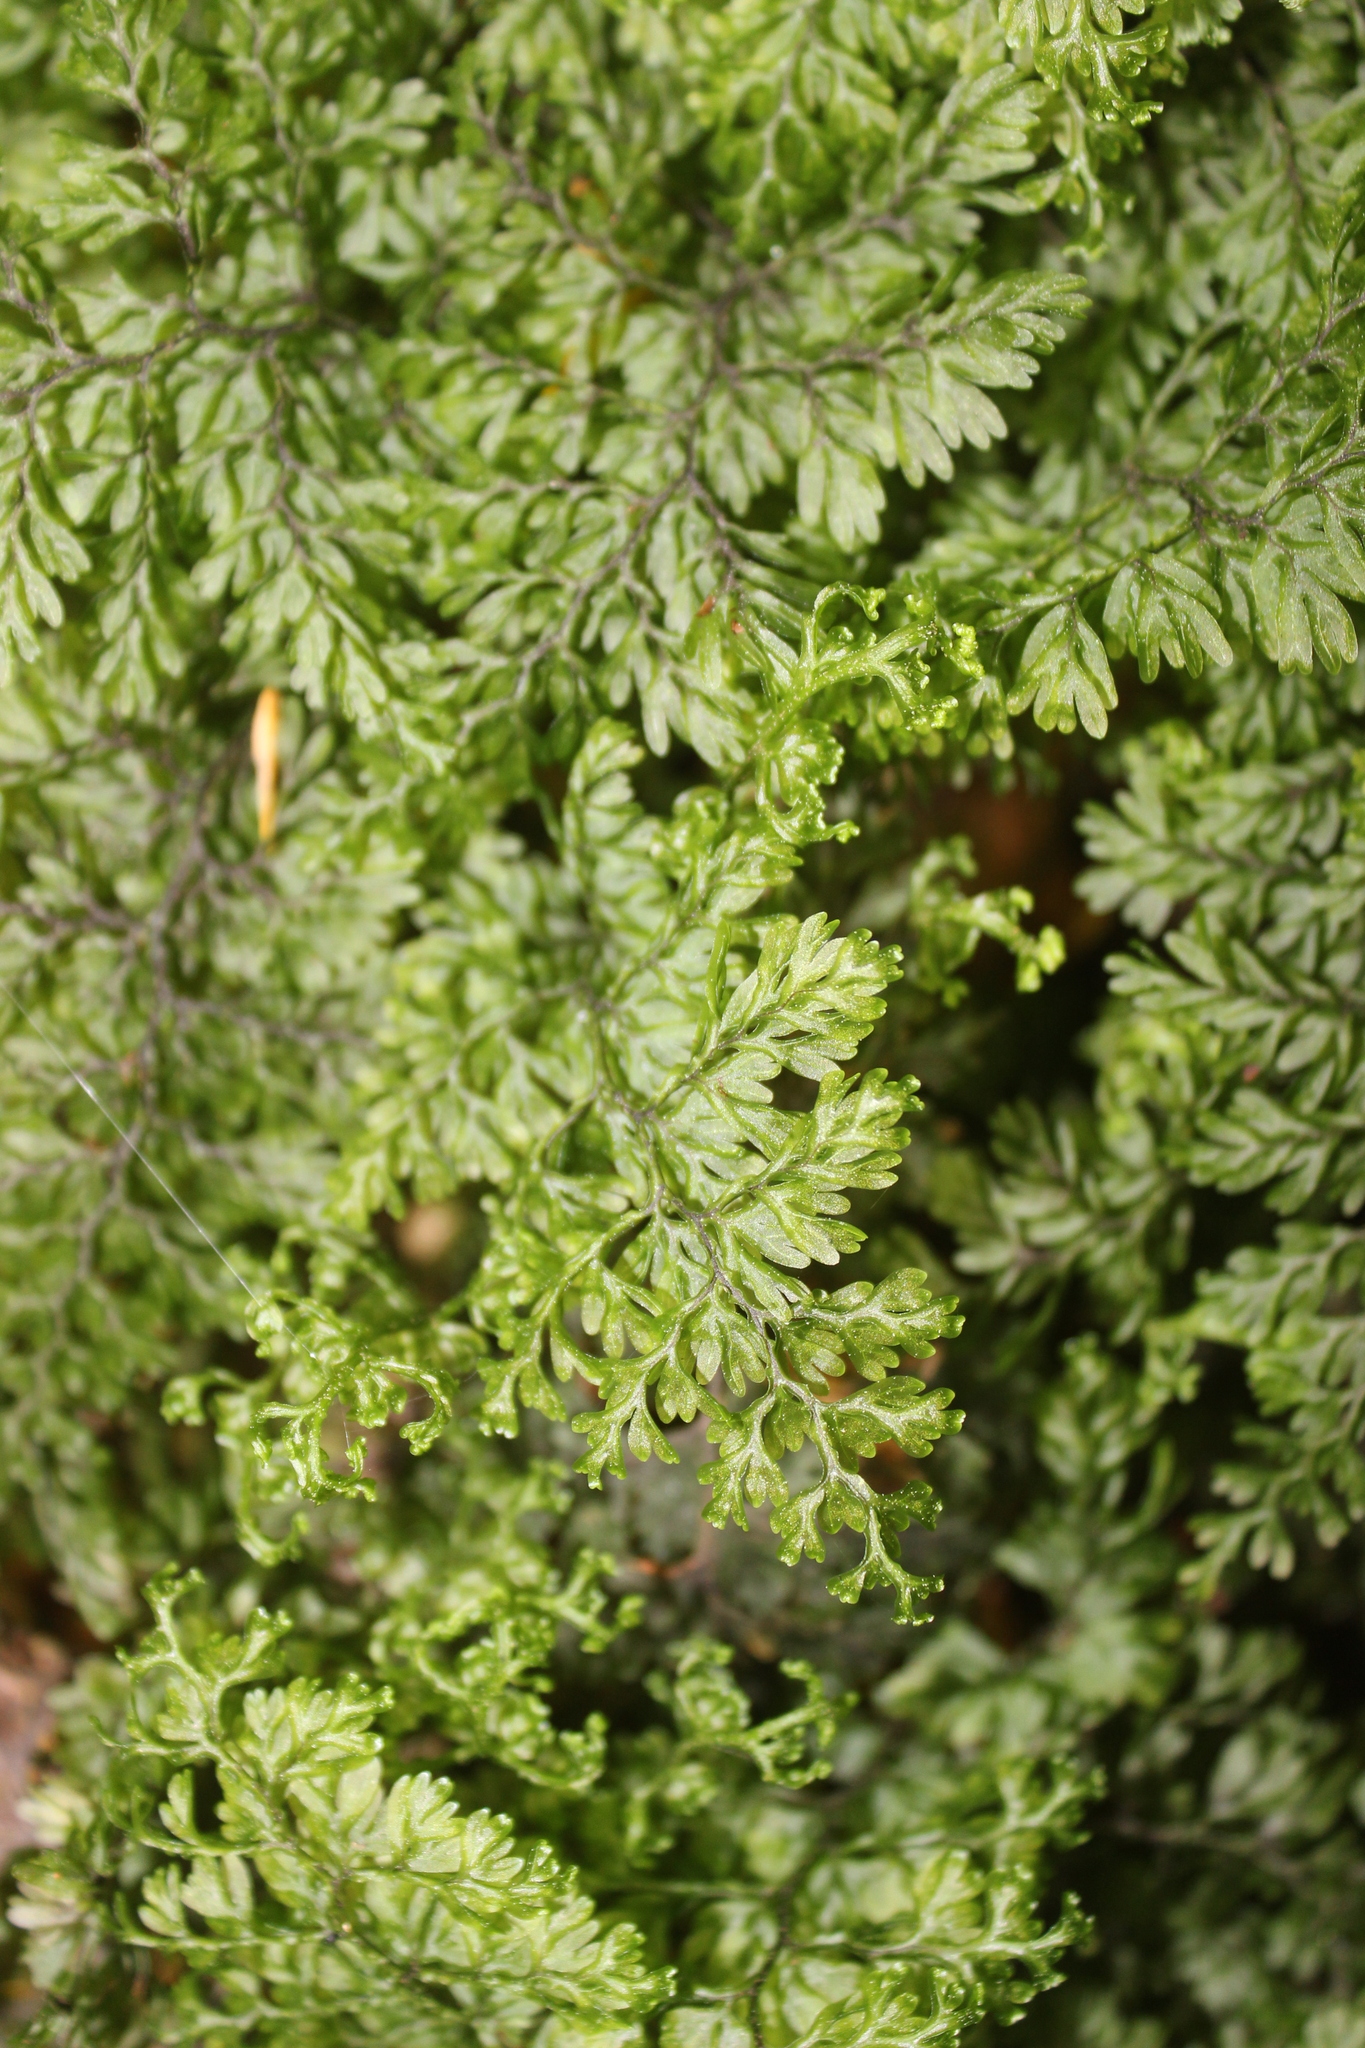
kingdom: Plantae
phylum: Tracheophyta
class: Polypodiopsida
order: Hymenophyllales
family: Hymenophyllaceae
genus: Hymenophyllum
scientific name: Hymenophyllum sanguinolentum
